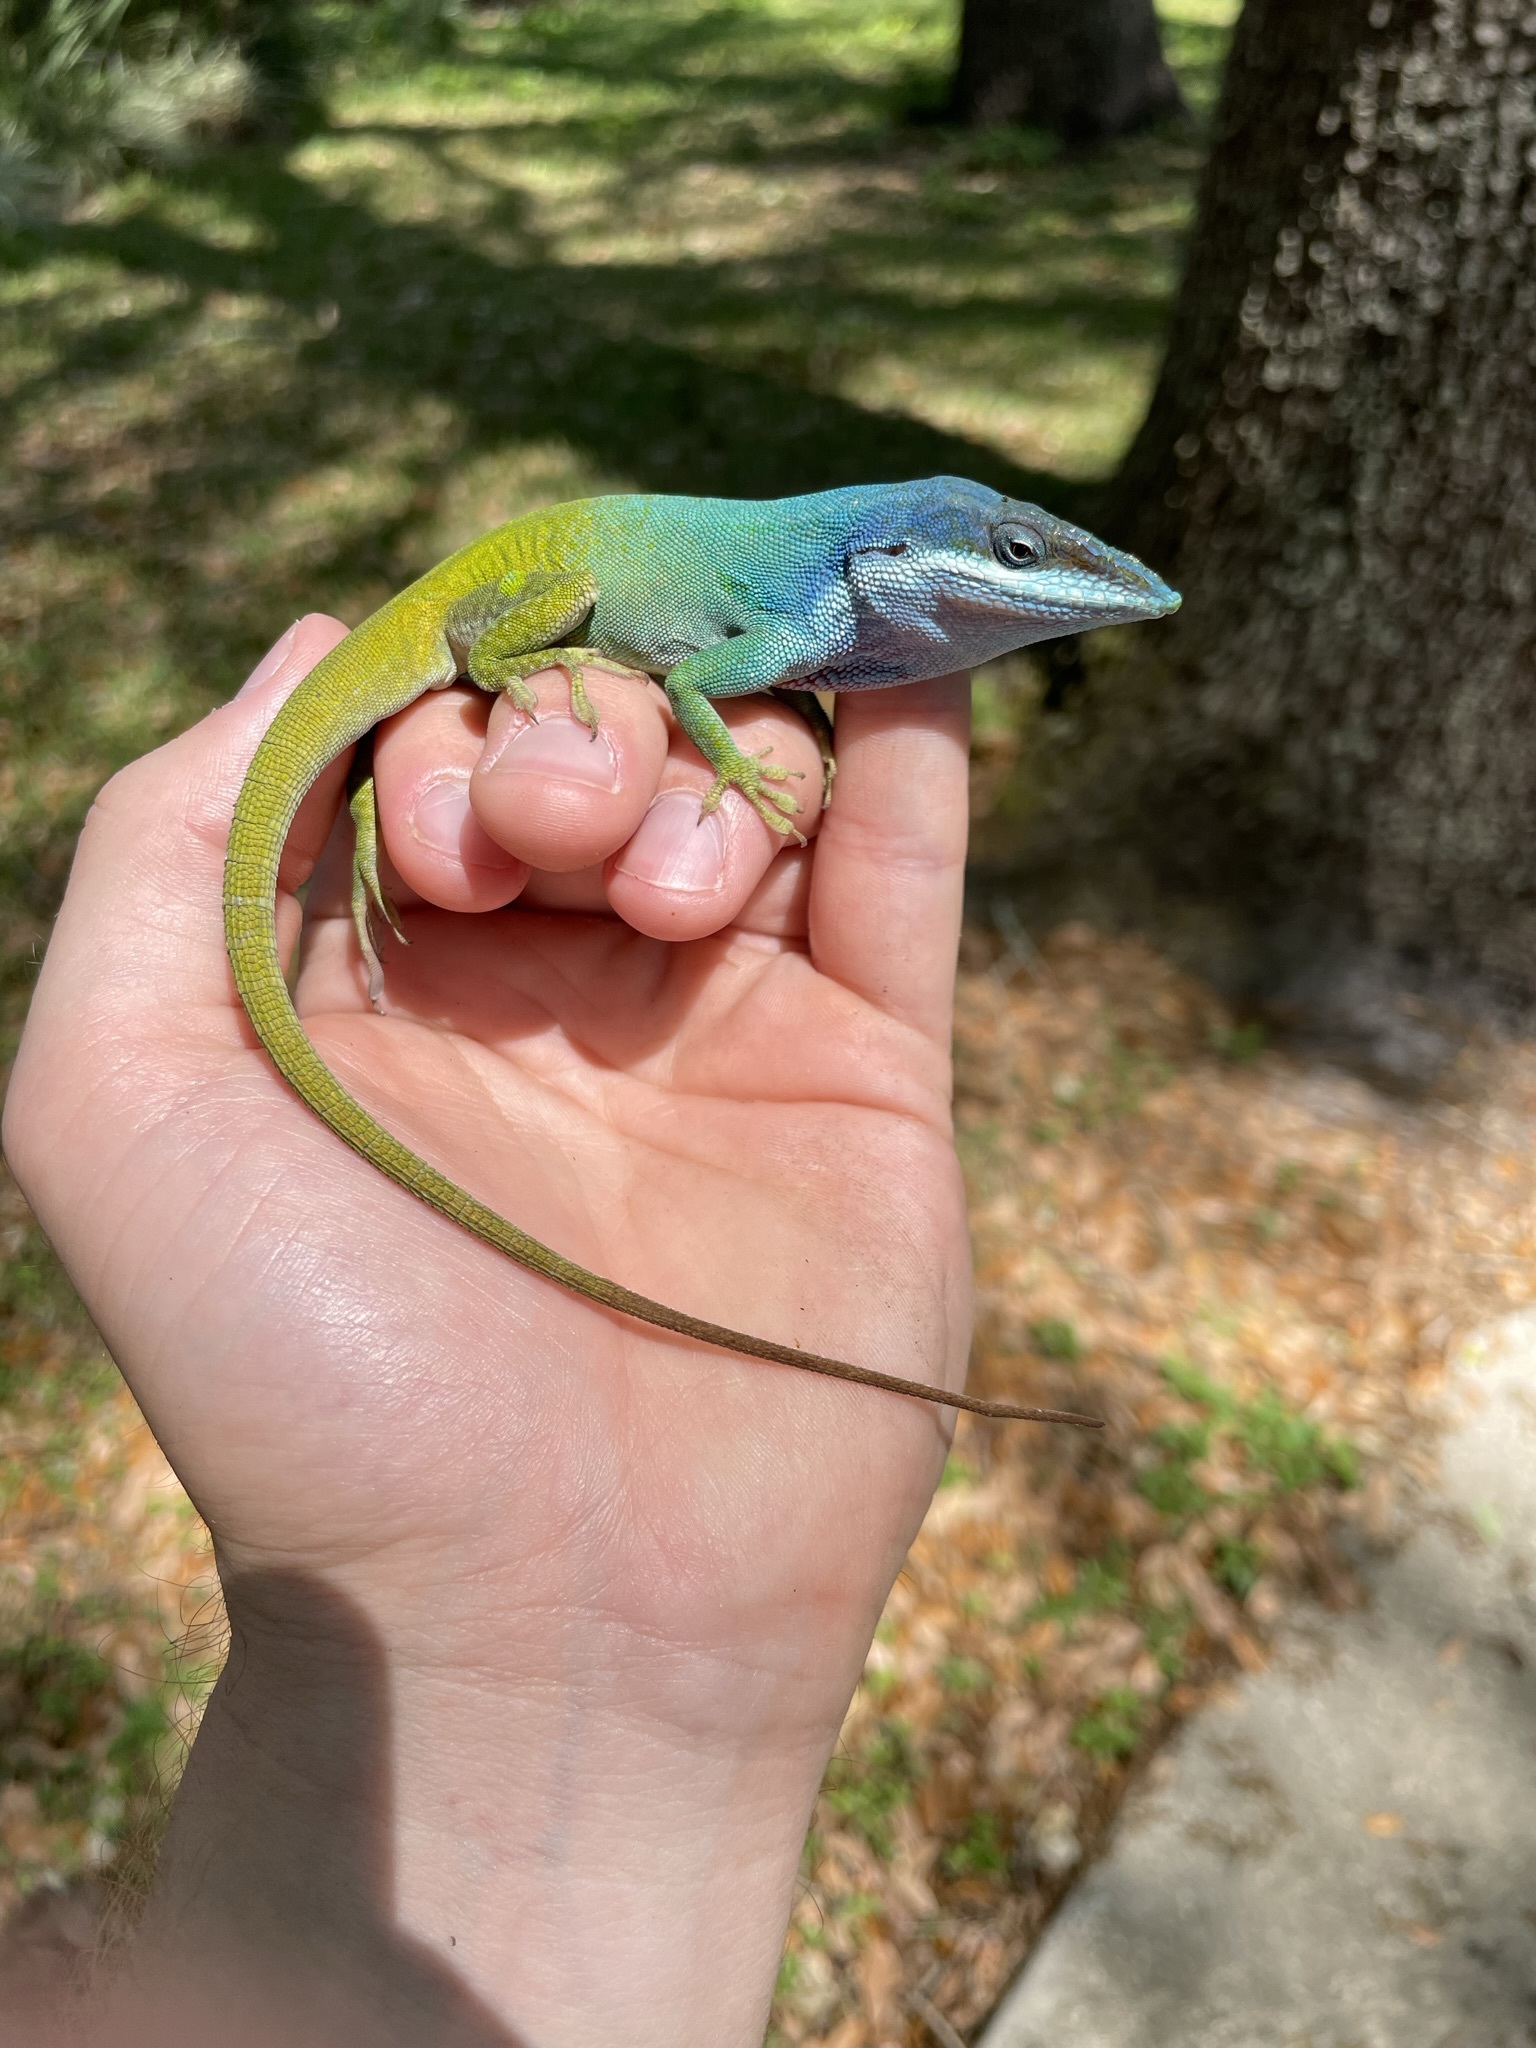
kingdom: Animalia
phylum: Chordata
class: Squamata
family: Dactyloidae
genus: Anolis
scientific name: Anolis allisoni
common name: Allison's anole
